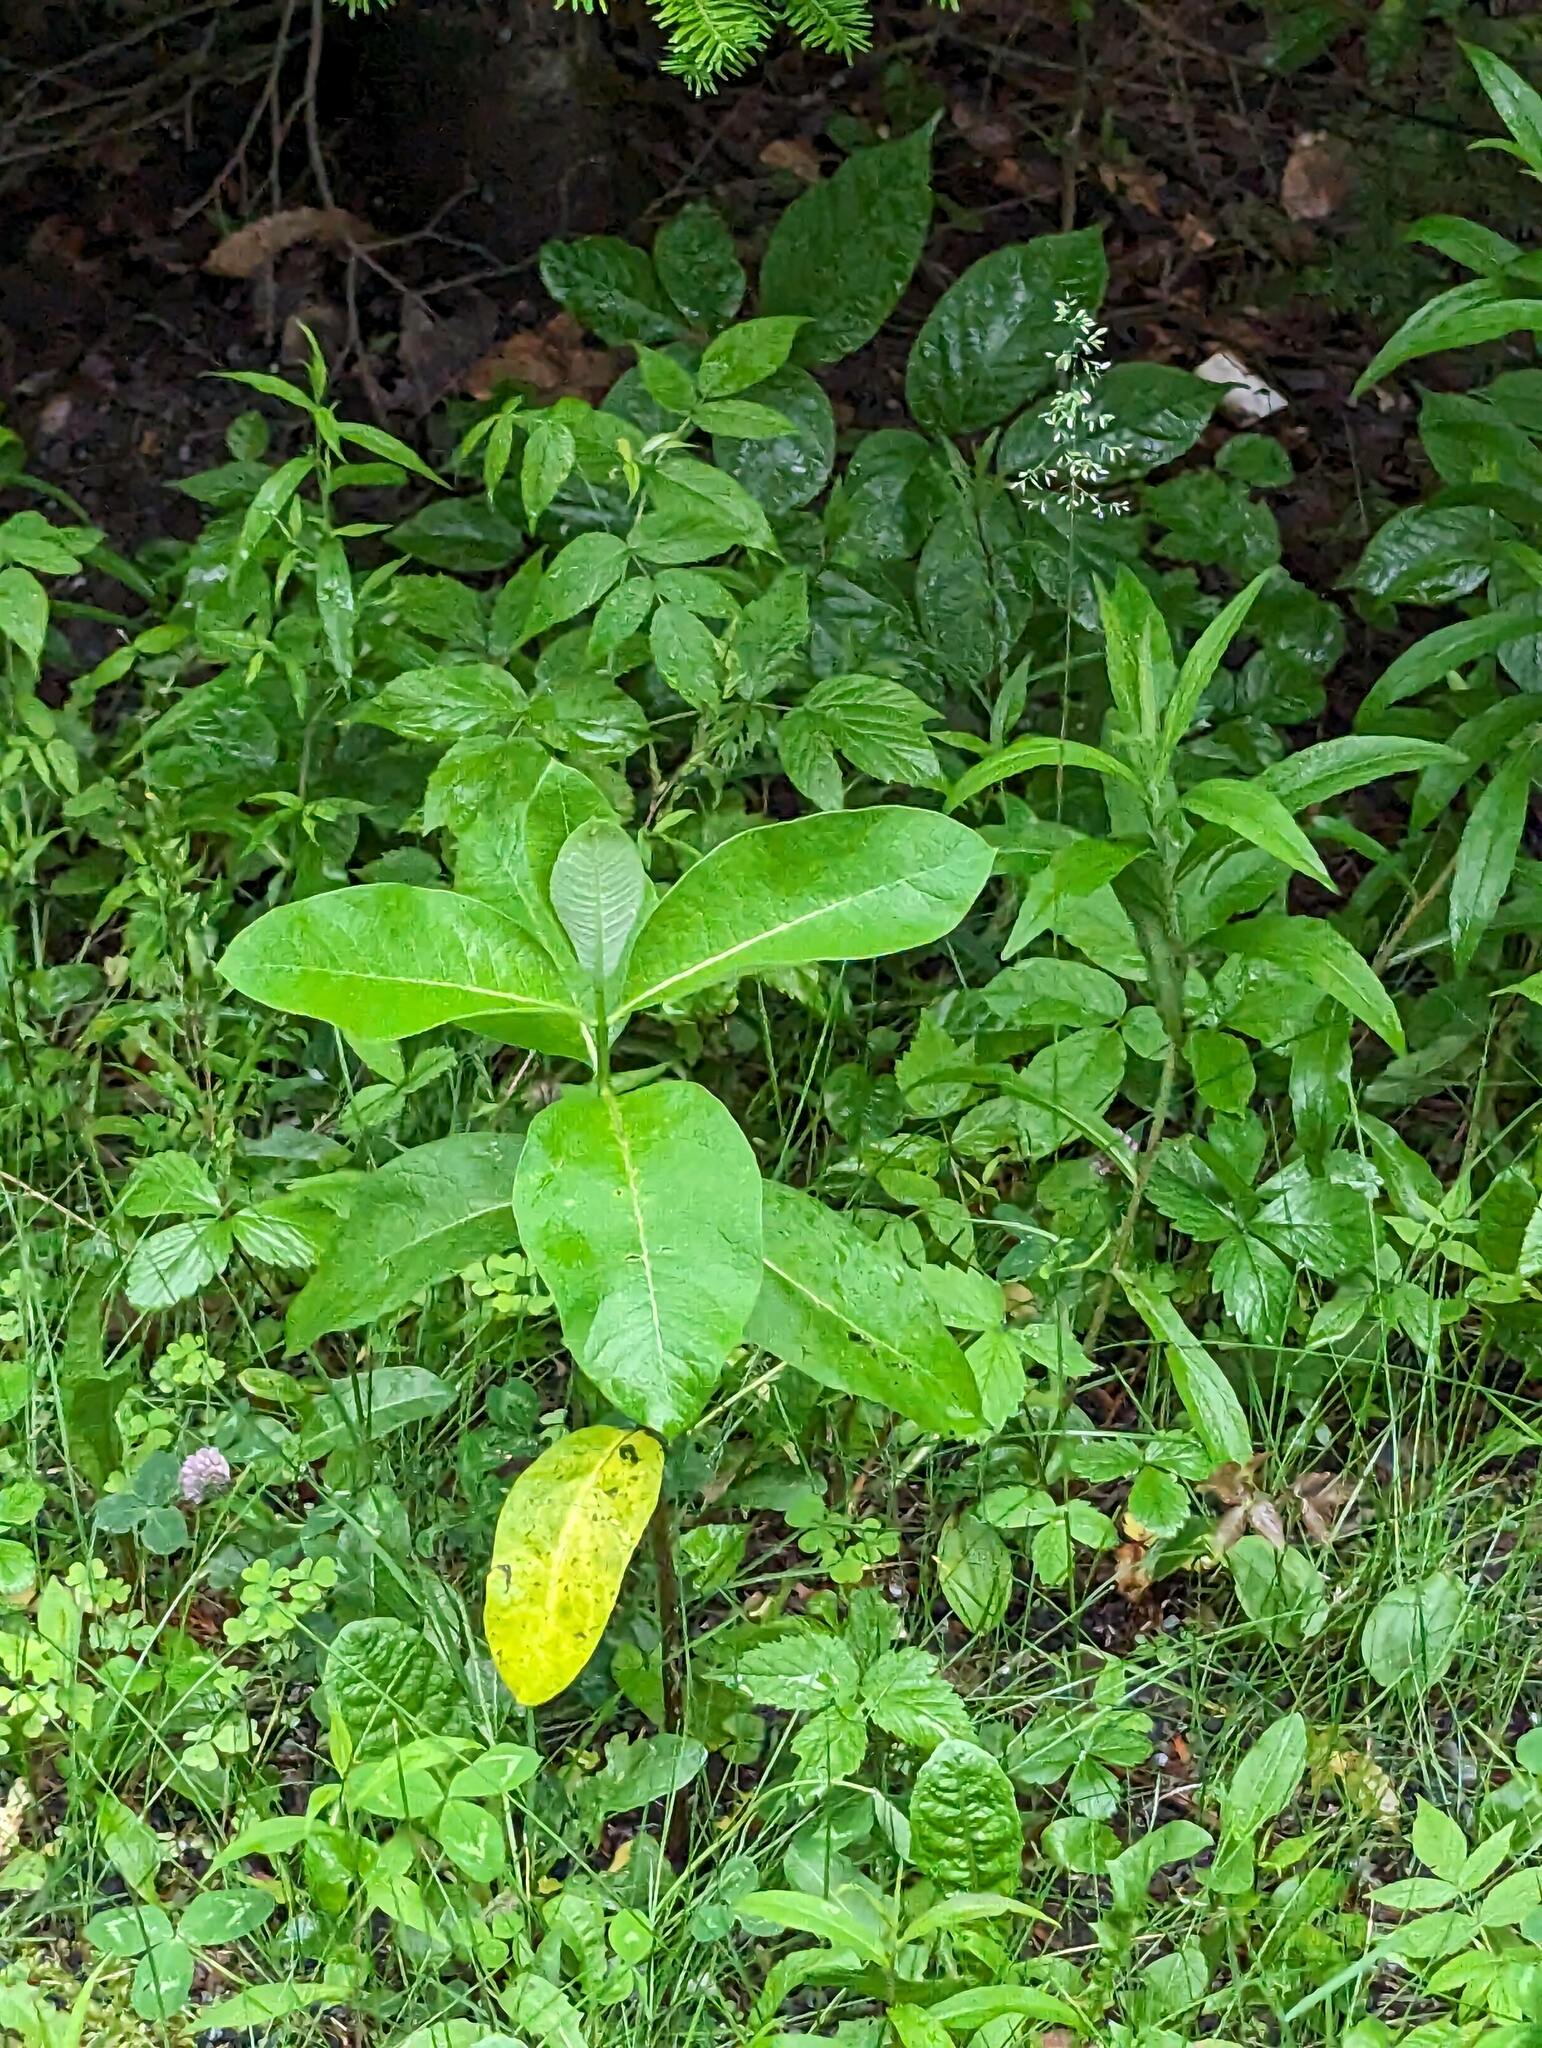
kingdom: Plantae
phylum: Tracheophyta
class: Magnoliopsida
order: Gentianales
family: Apocynaceae
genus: Asclepias
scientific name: Asclepias syriaca
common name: Common milkweed
